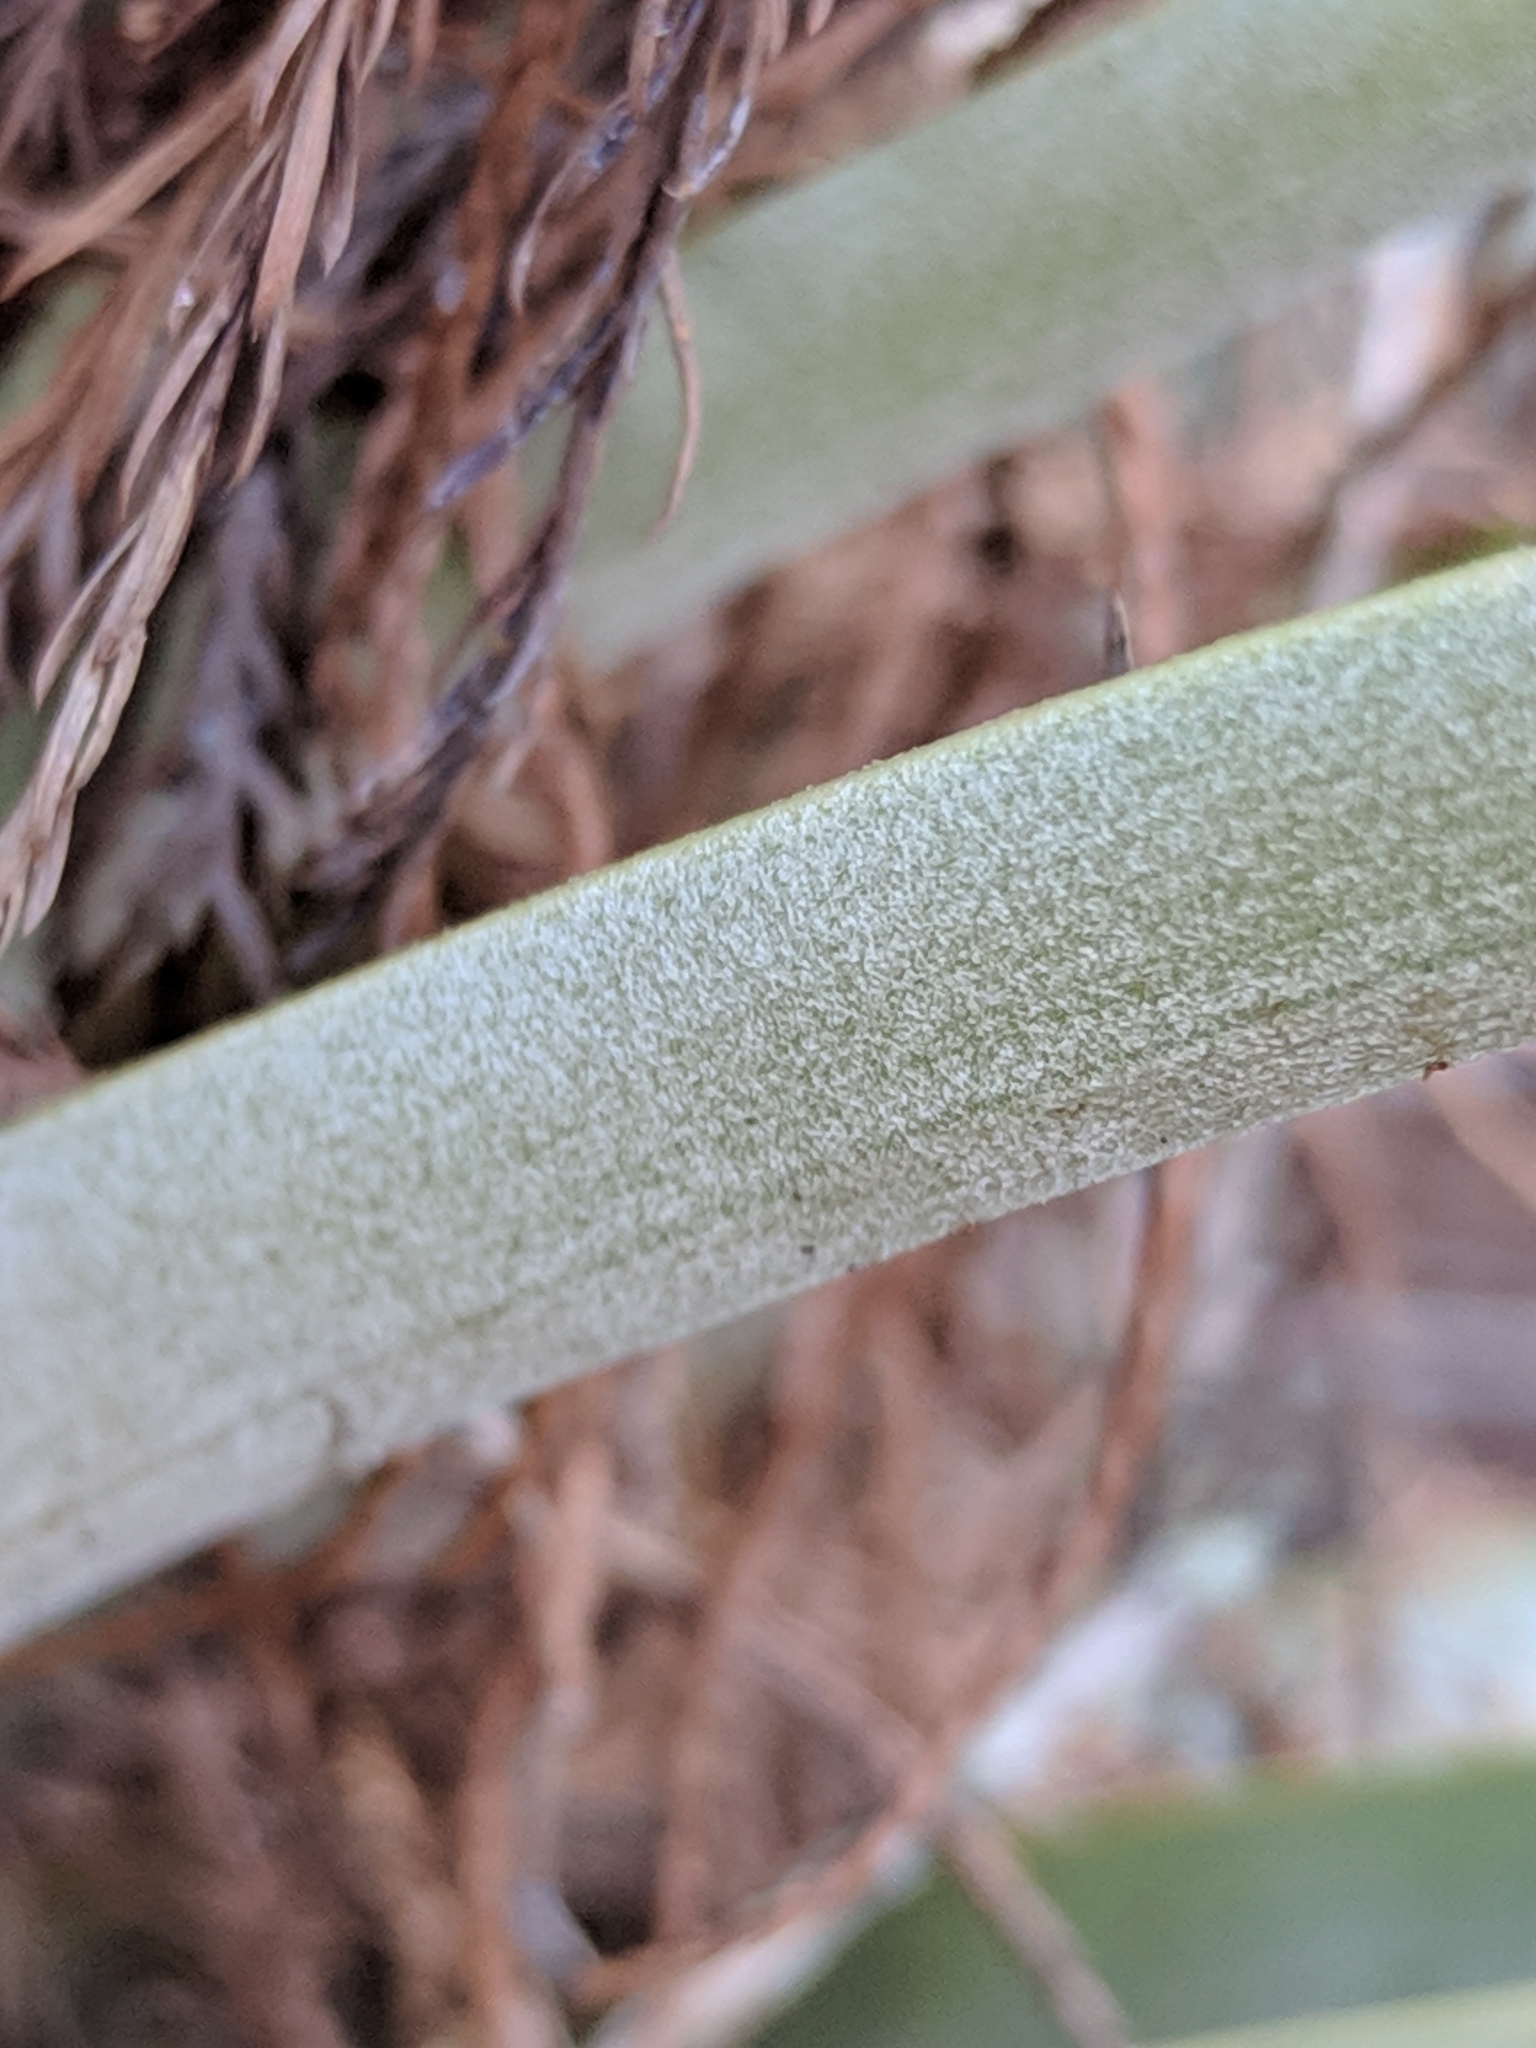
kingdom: Plantae
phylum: Tracheophyta
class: Liliopsida
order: Poales
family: Bromeliaceae
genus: Tillandsia
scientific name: Tillandsia fasciculata
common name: Giant airplant
